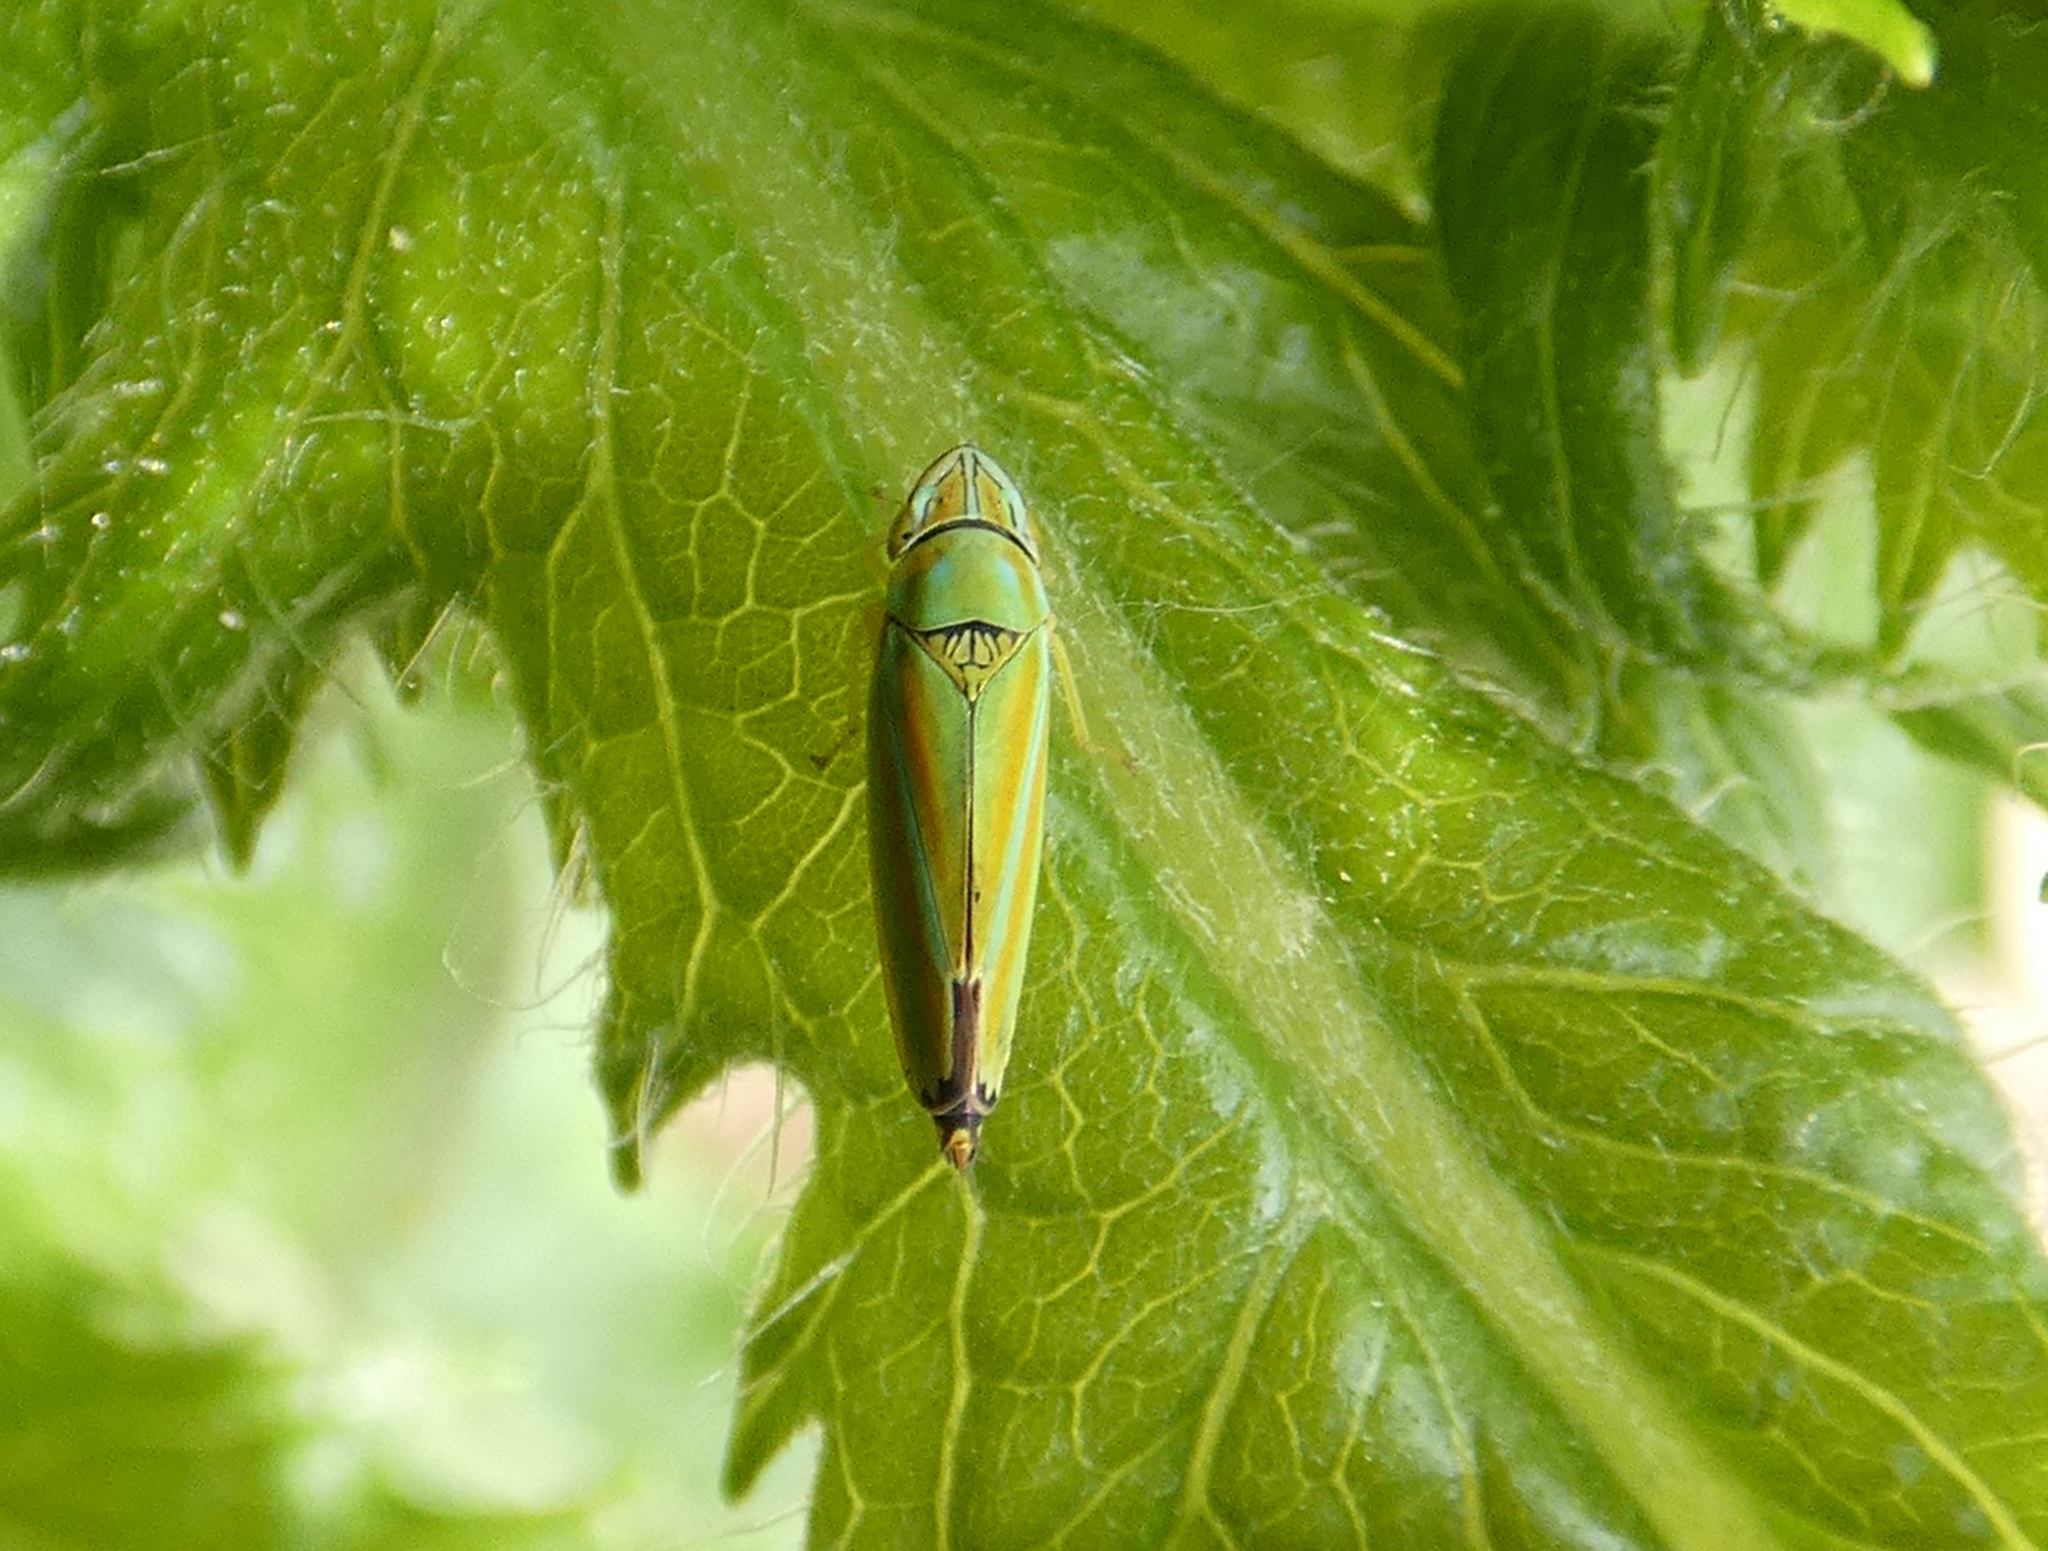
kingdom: Animalia
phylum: Arthropoda
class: Insecta
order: Hemiptera
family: Cicadellidae
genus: Graphocephala
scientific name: Graphocephala versuta
